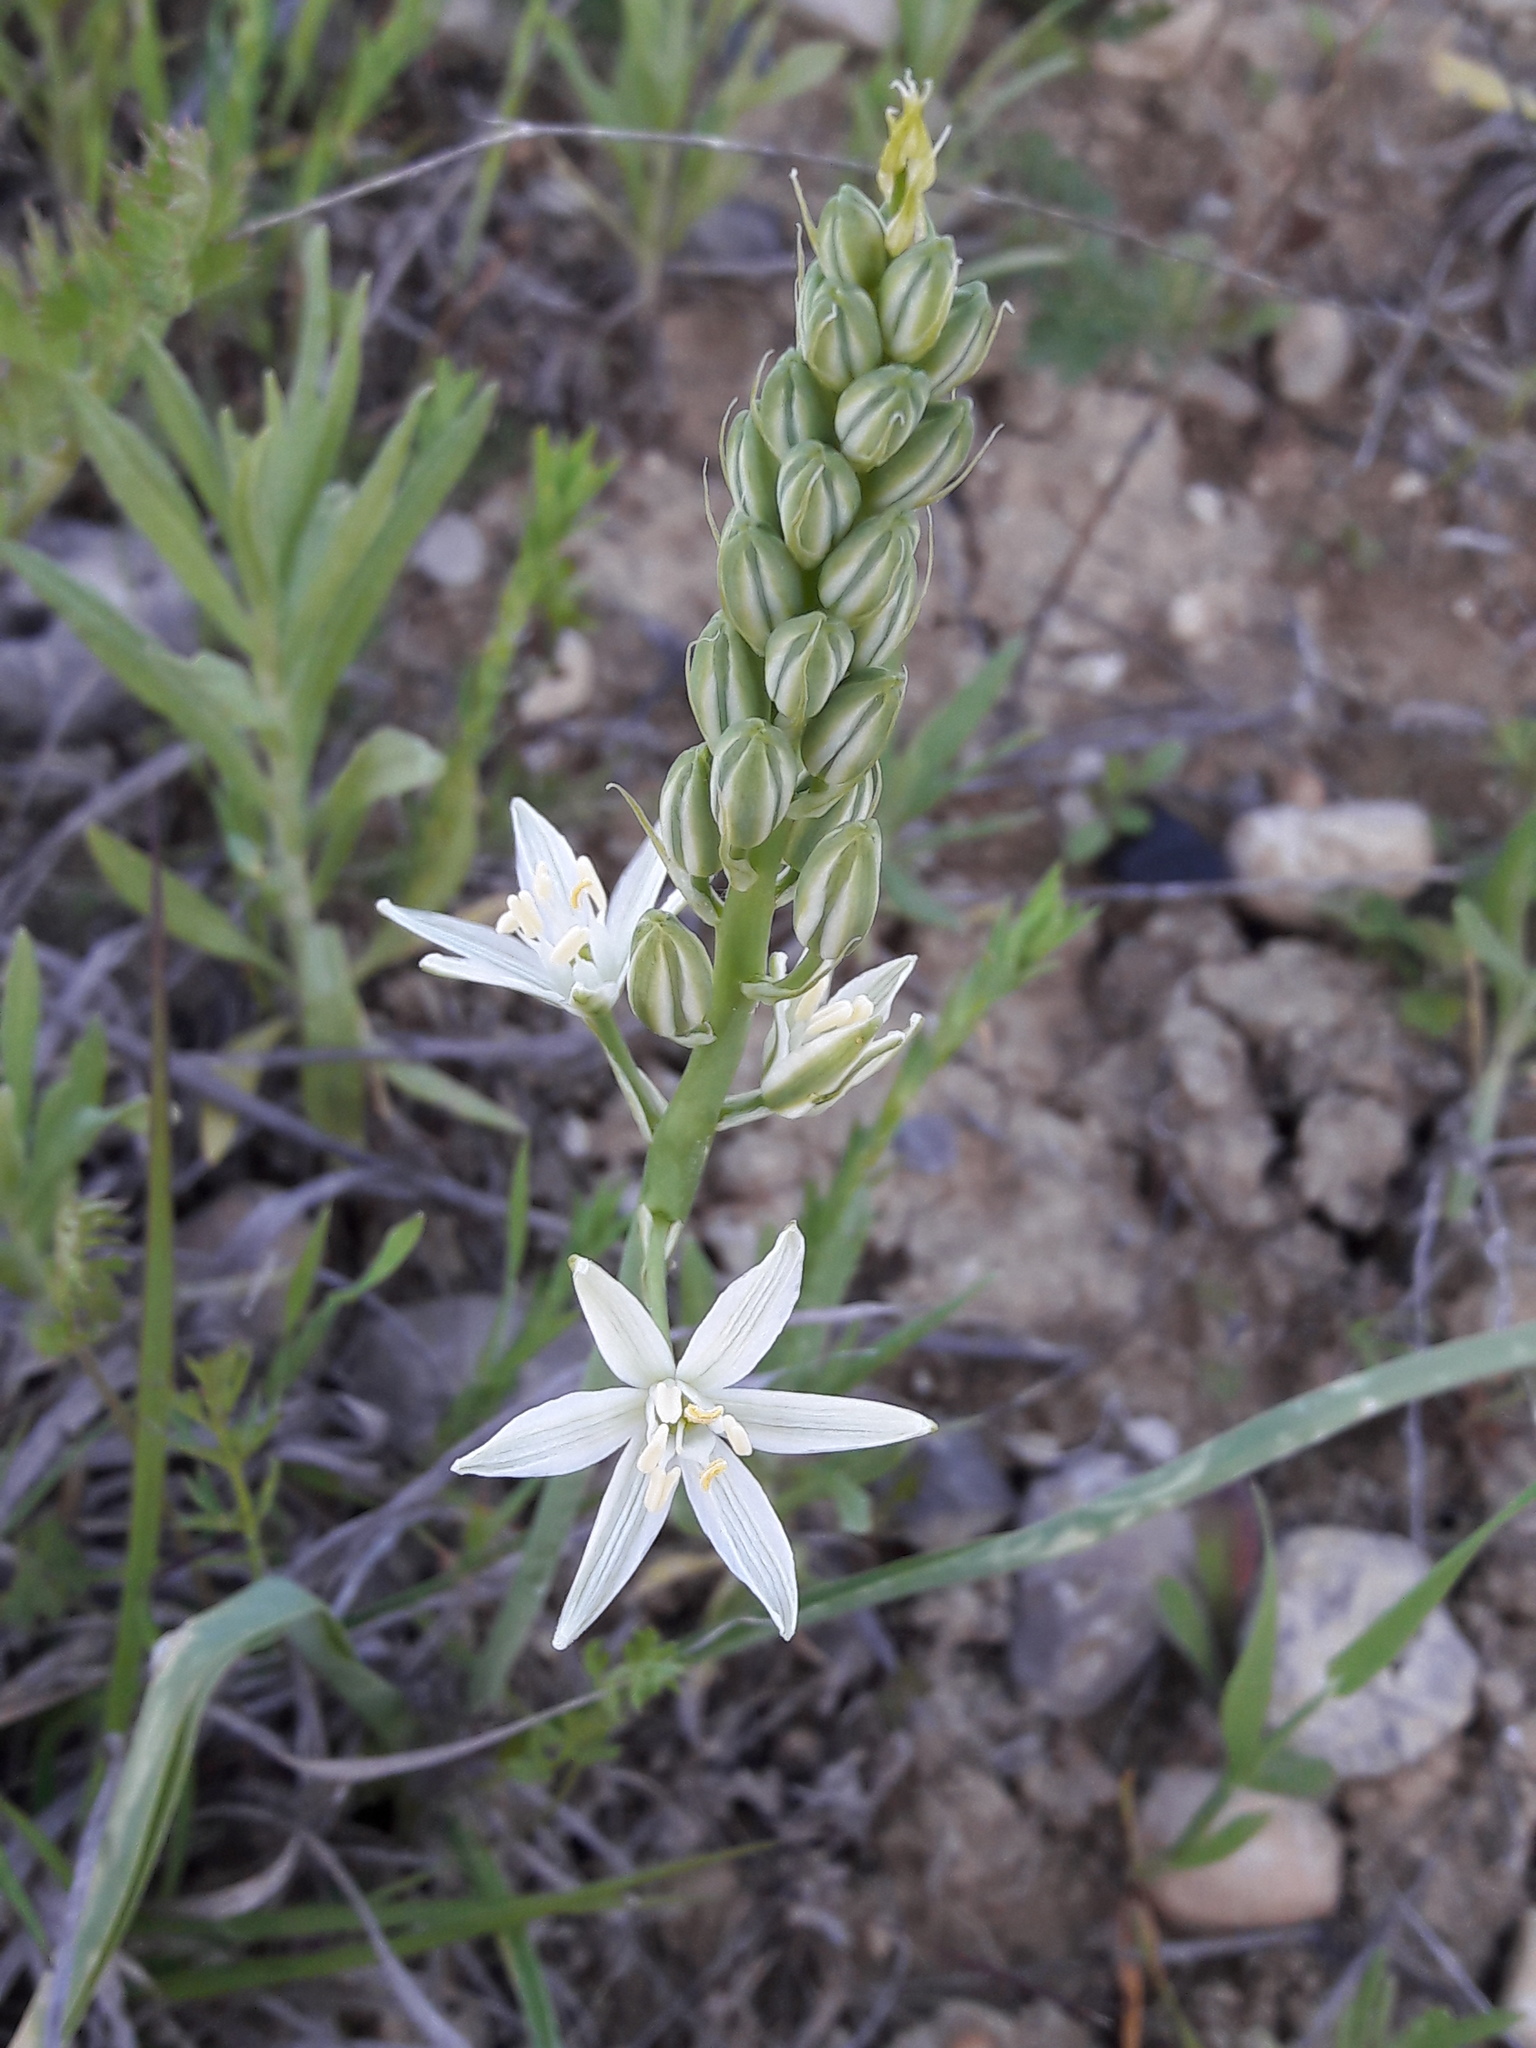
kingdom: Plantae
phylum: Tracheophyta
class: Liliopsida
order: Asparagales
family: Asparagaceae
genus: Ornithogalum
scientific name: Ornithogalum narbonense
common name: Bath-asparagus
